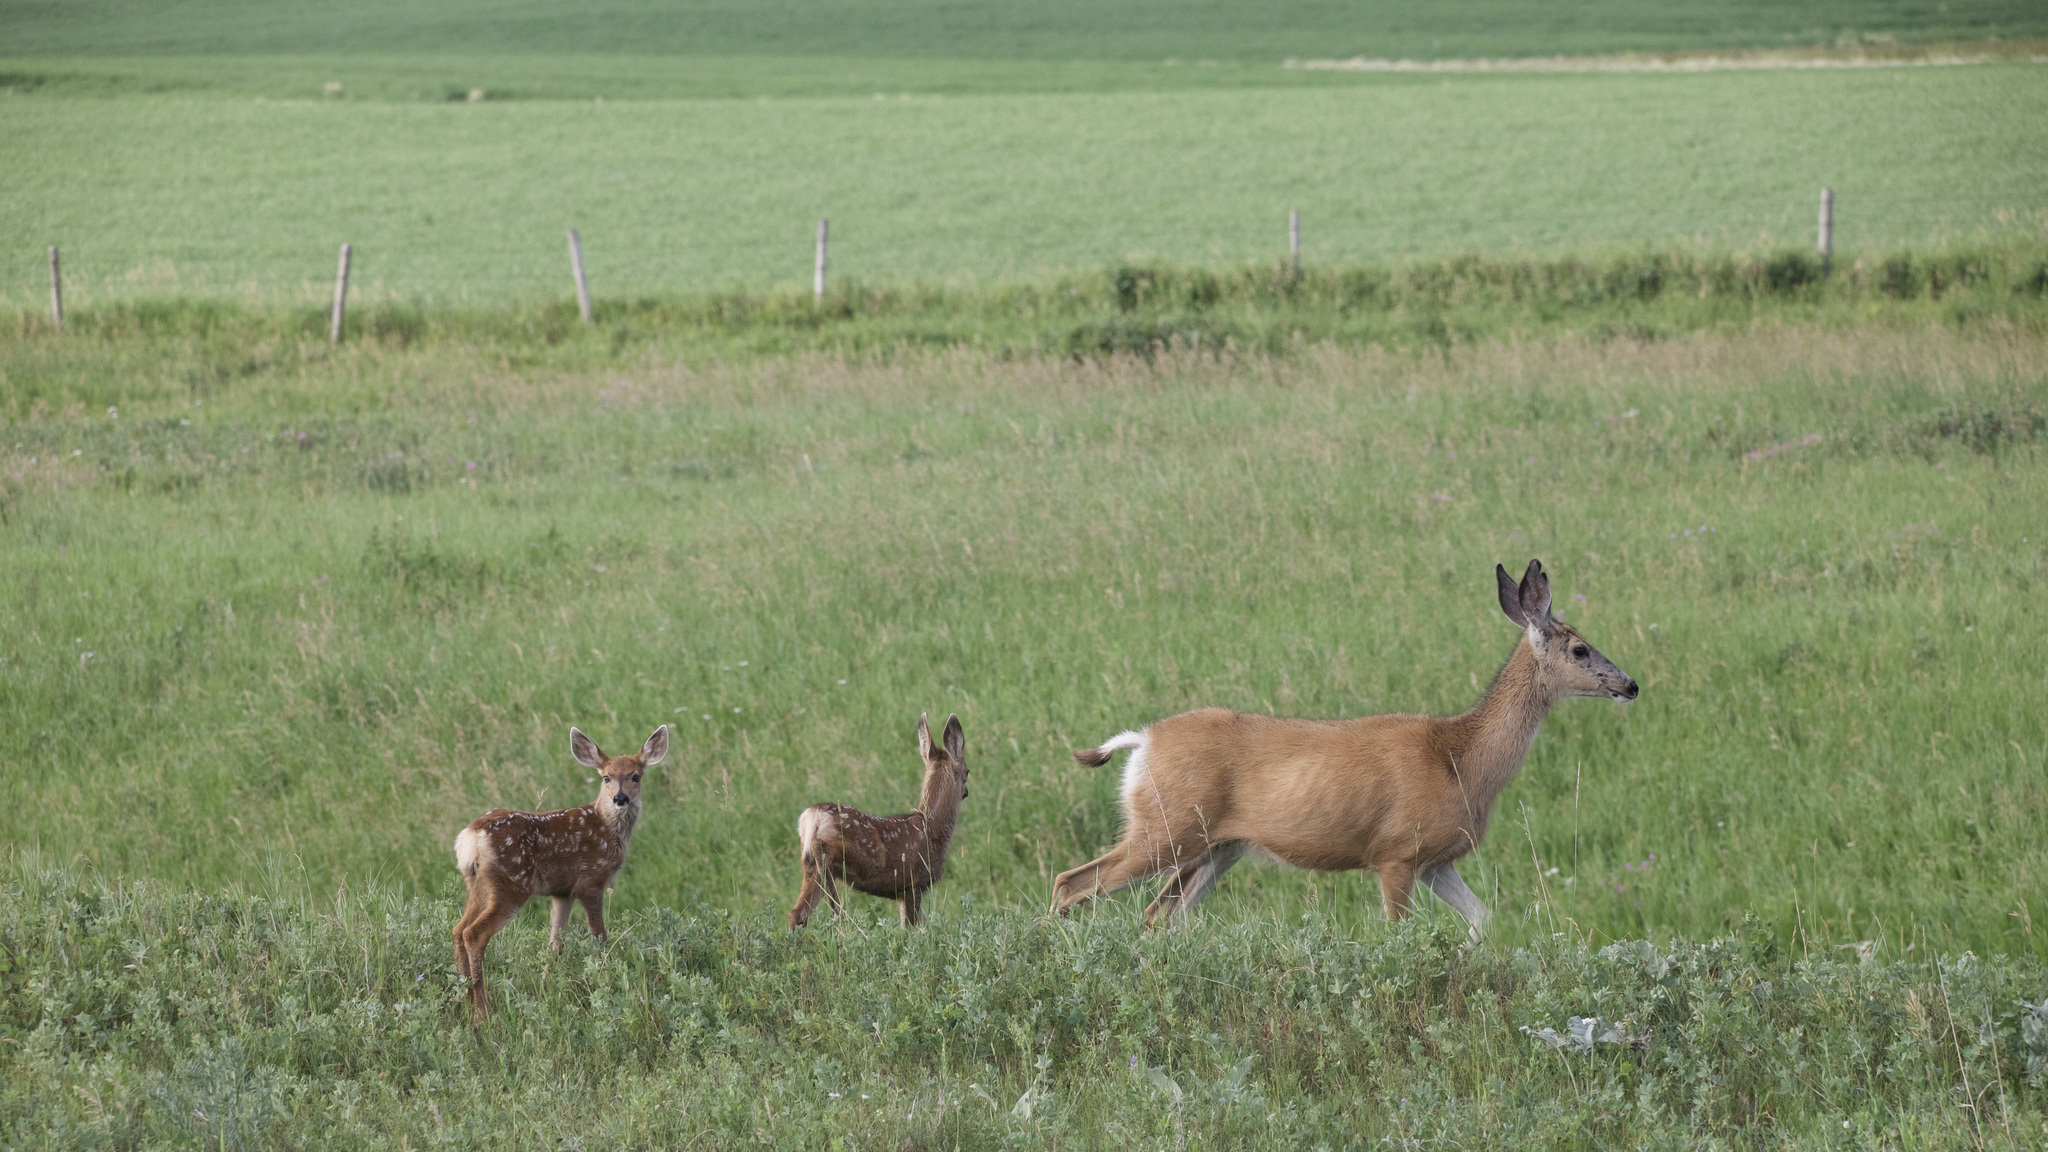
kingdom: Animalia
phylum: Chordata
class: Mammalia
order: Artiodactyla
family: Cervidae
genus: Odocoileus
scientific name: Odocoileus hemionus
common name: Mule deer
